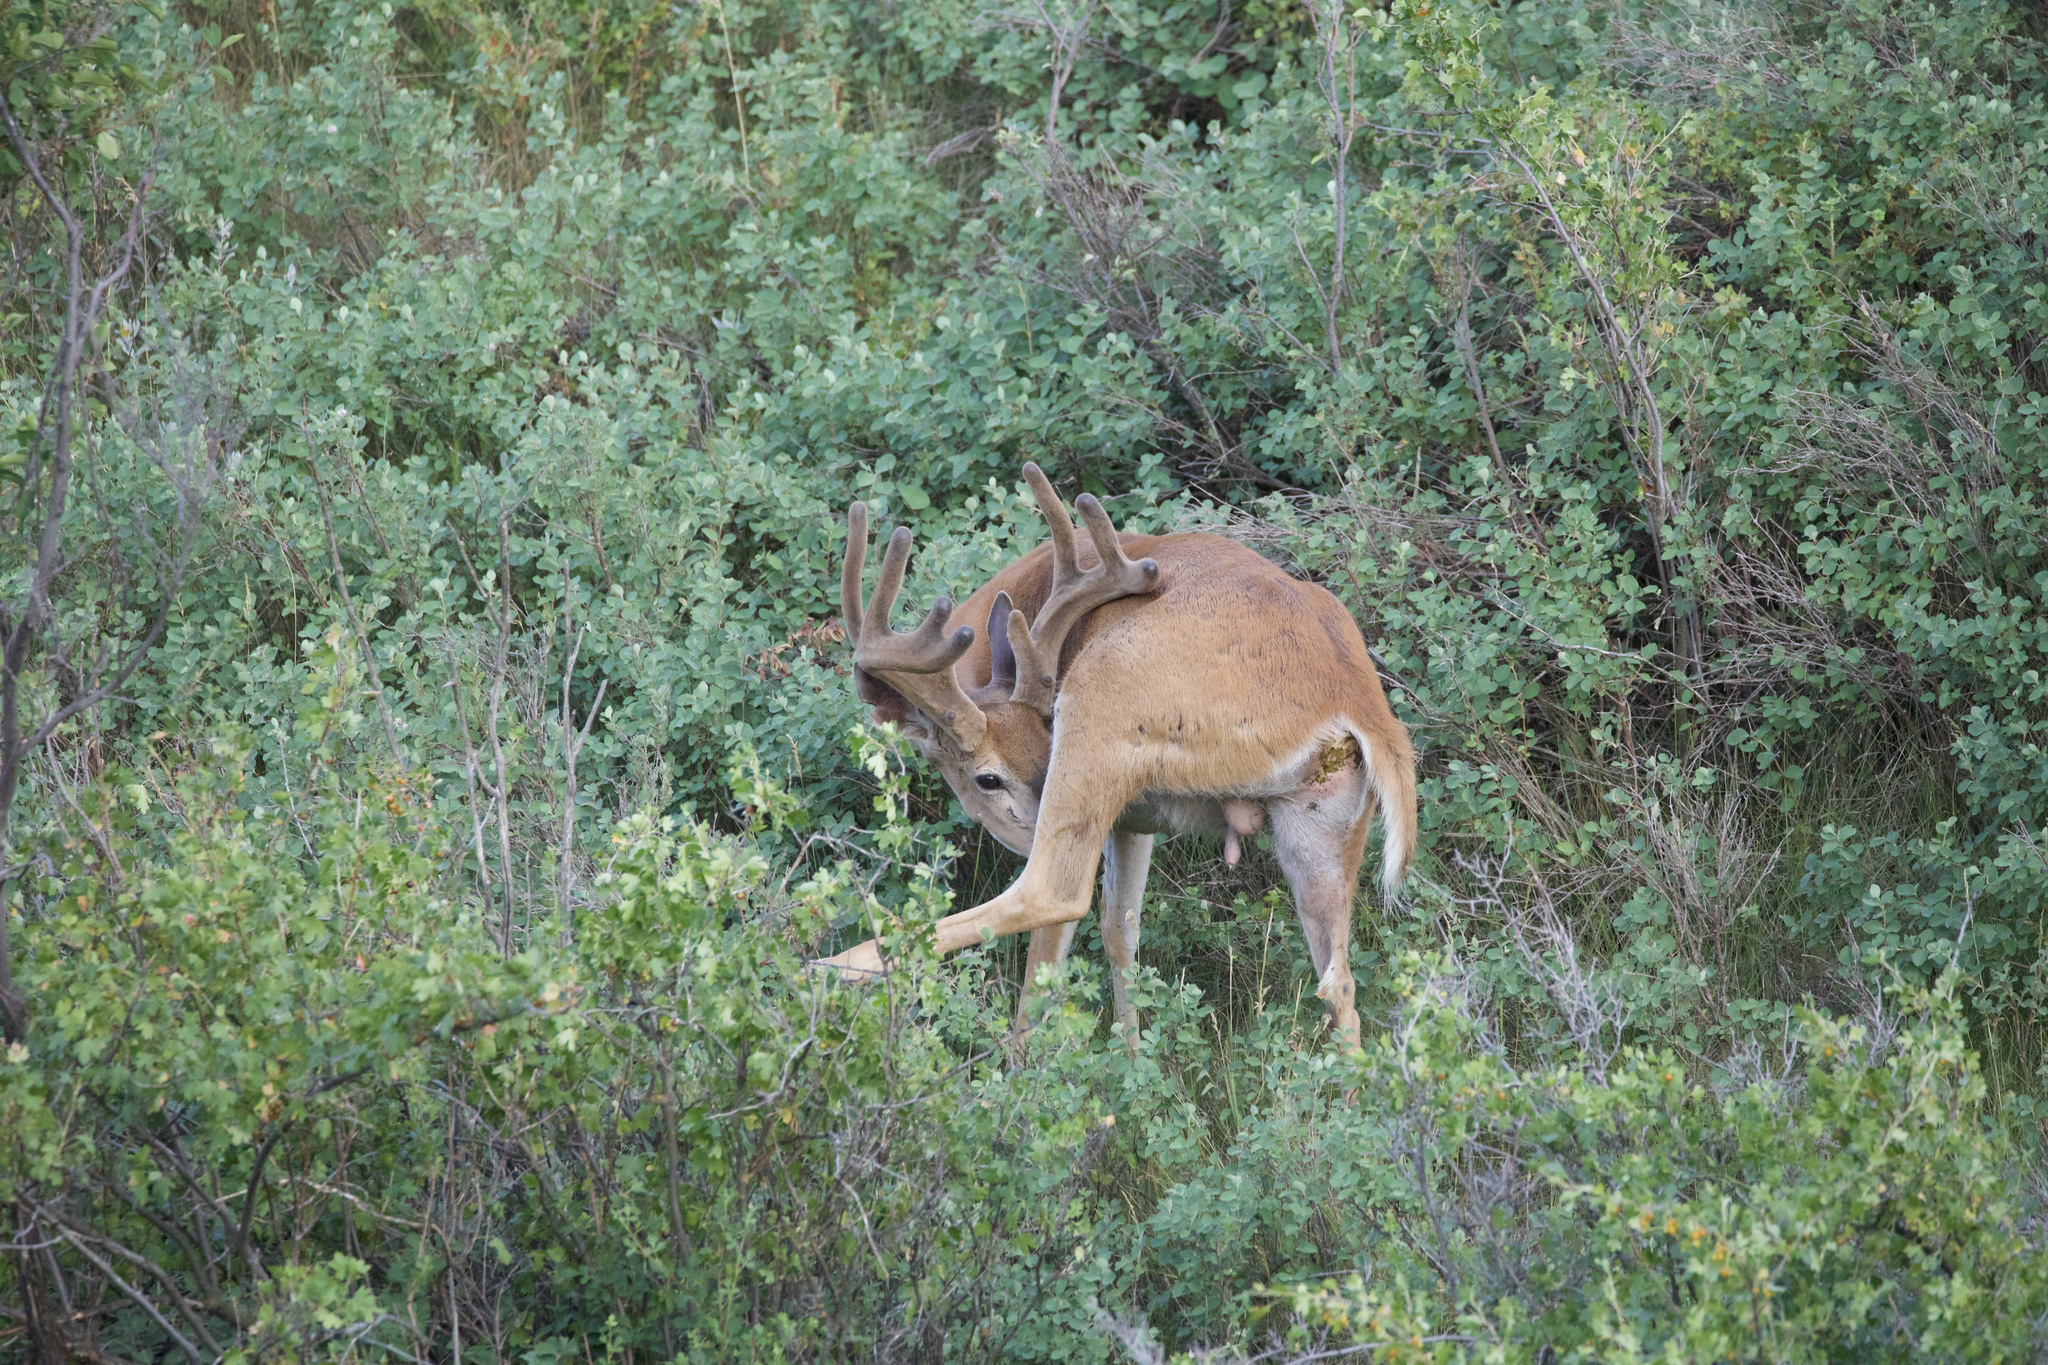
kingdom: Animalia
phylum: Chordata
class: Mammalia
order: Artiodactyla
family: Cervidae
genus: Odocoileus
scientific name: Odocoileus virginianus
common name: White-tailed deer
